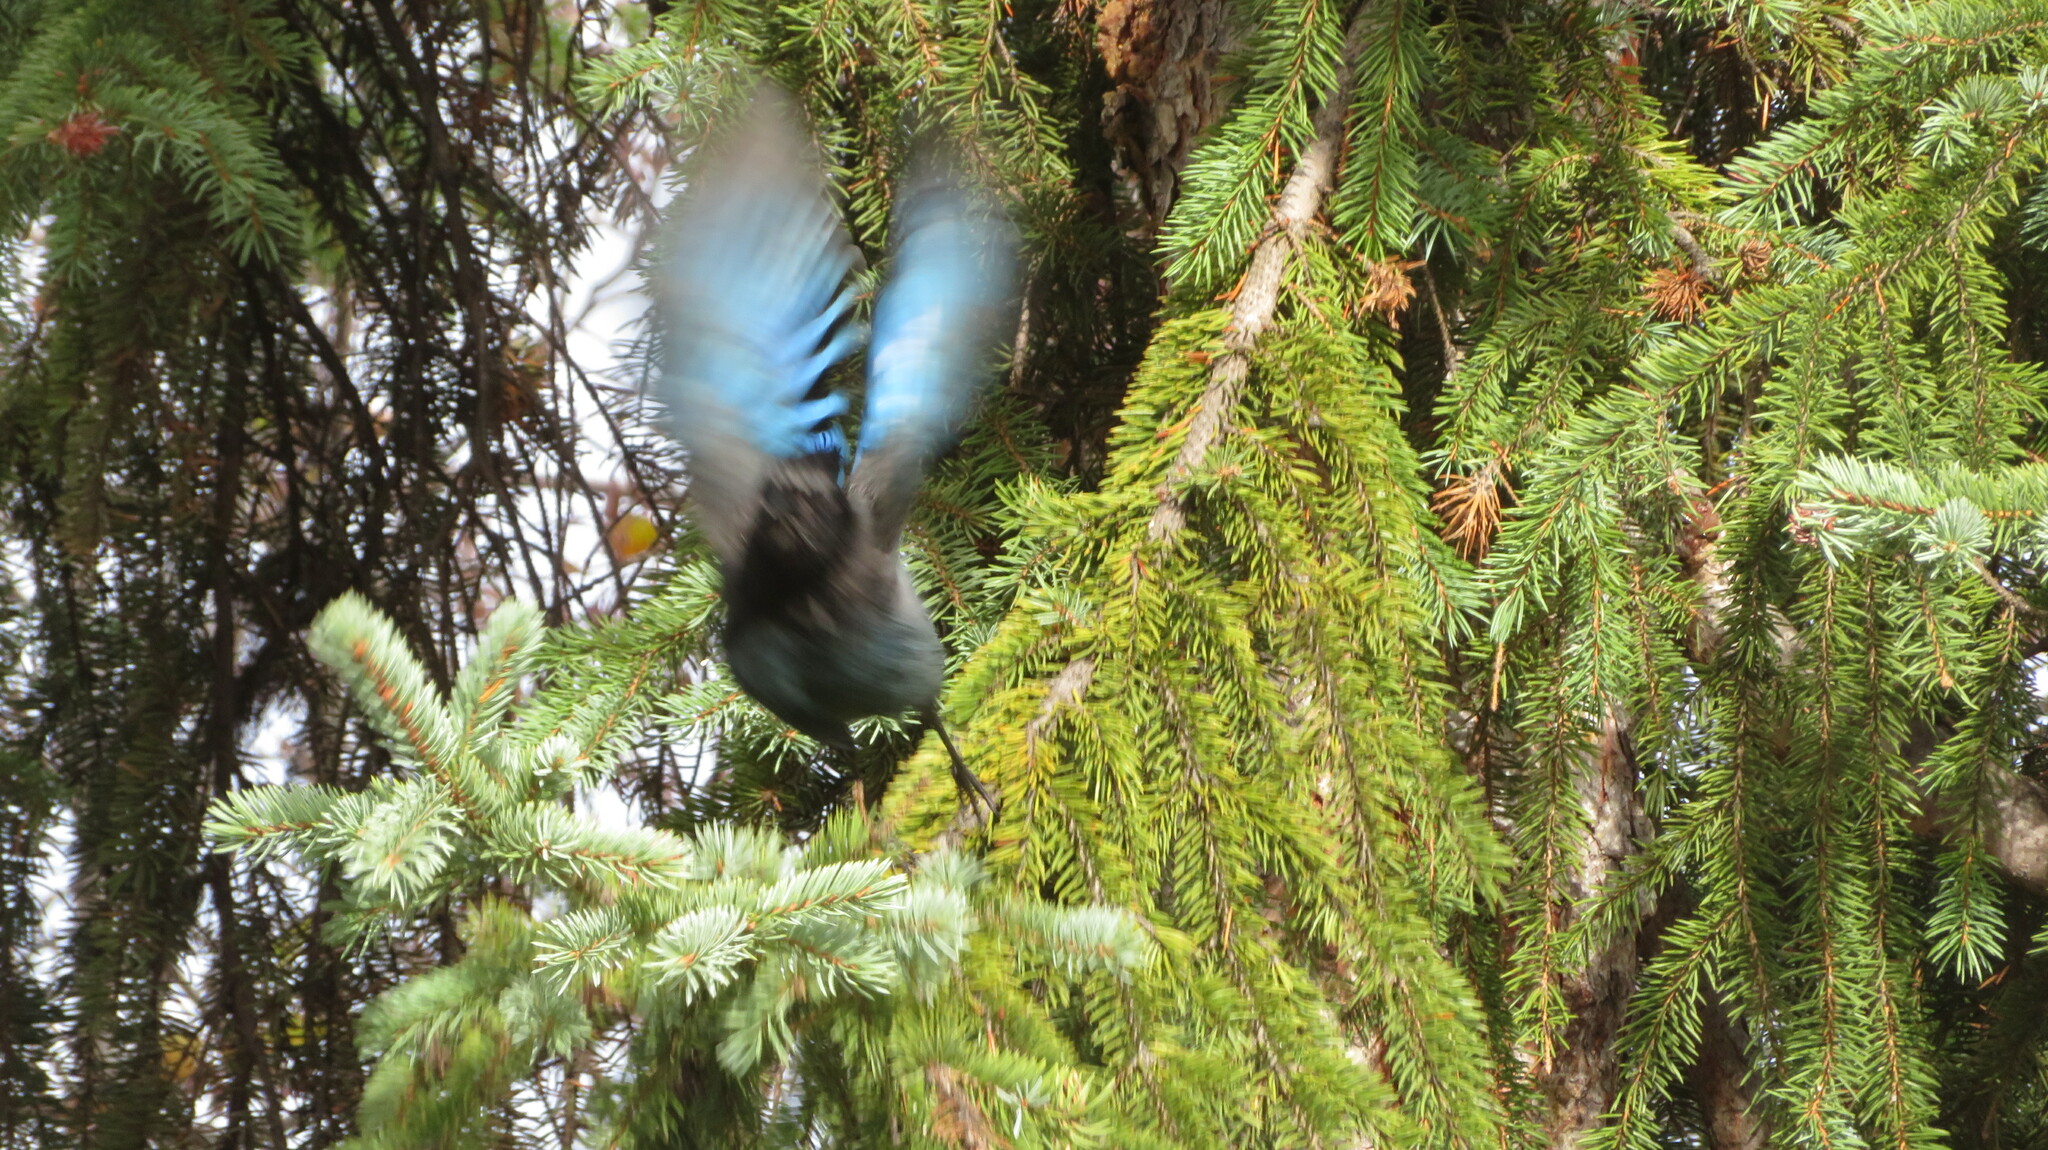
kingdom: Animalia
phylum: Chordata
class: Aves
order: Passeriformes
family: Corvidae
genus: Cyanocitta
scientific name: Cyanocitta stelleri
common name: Steller's jay
